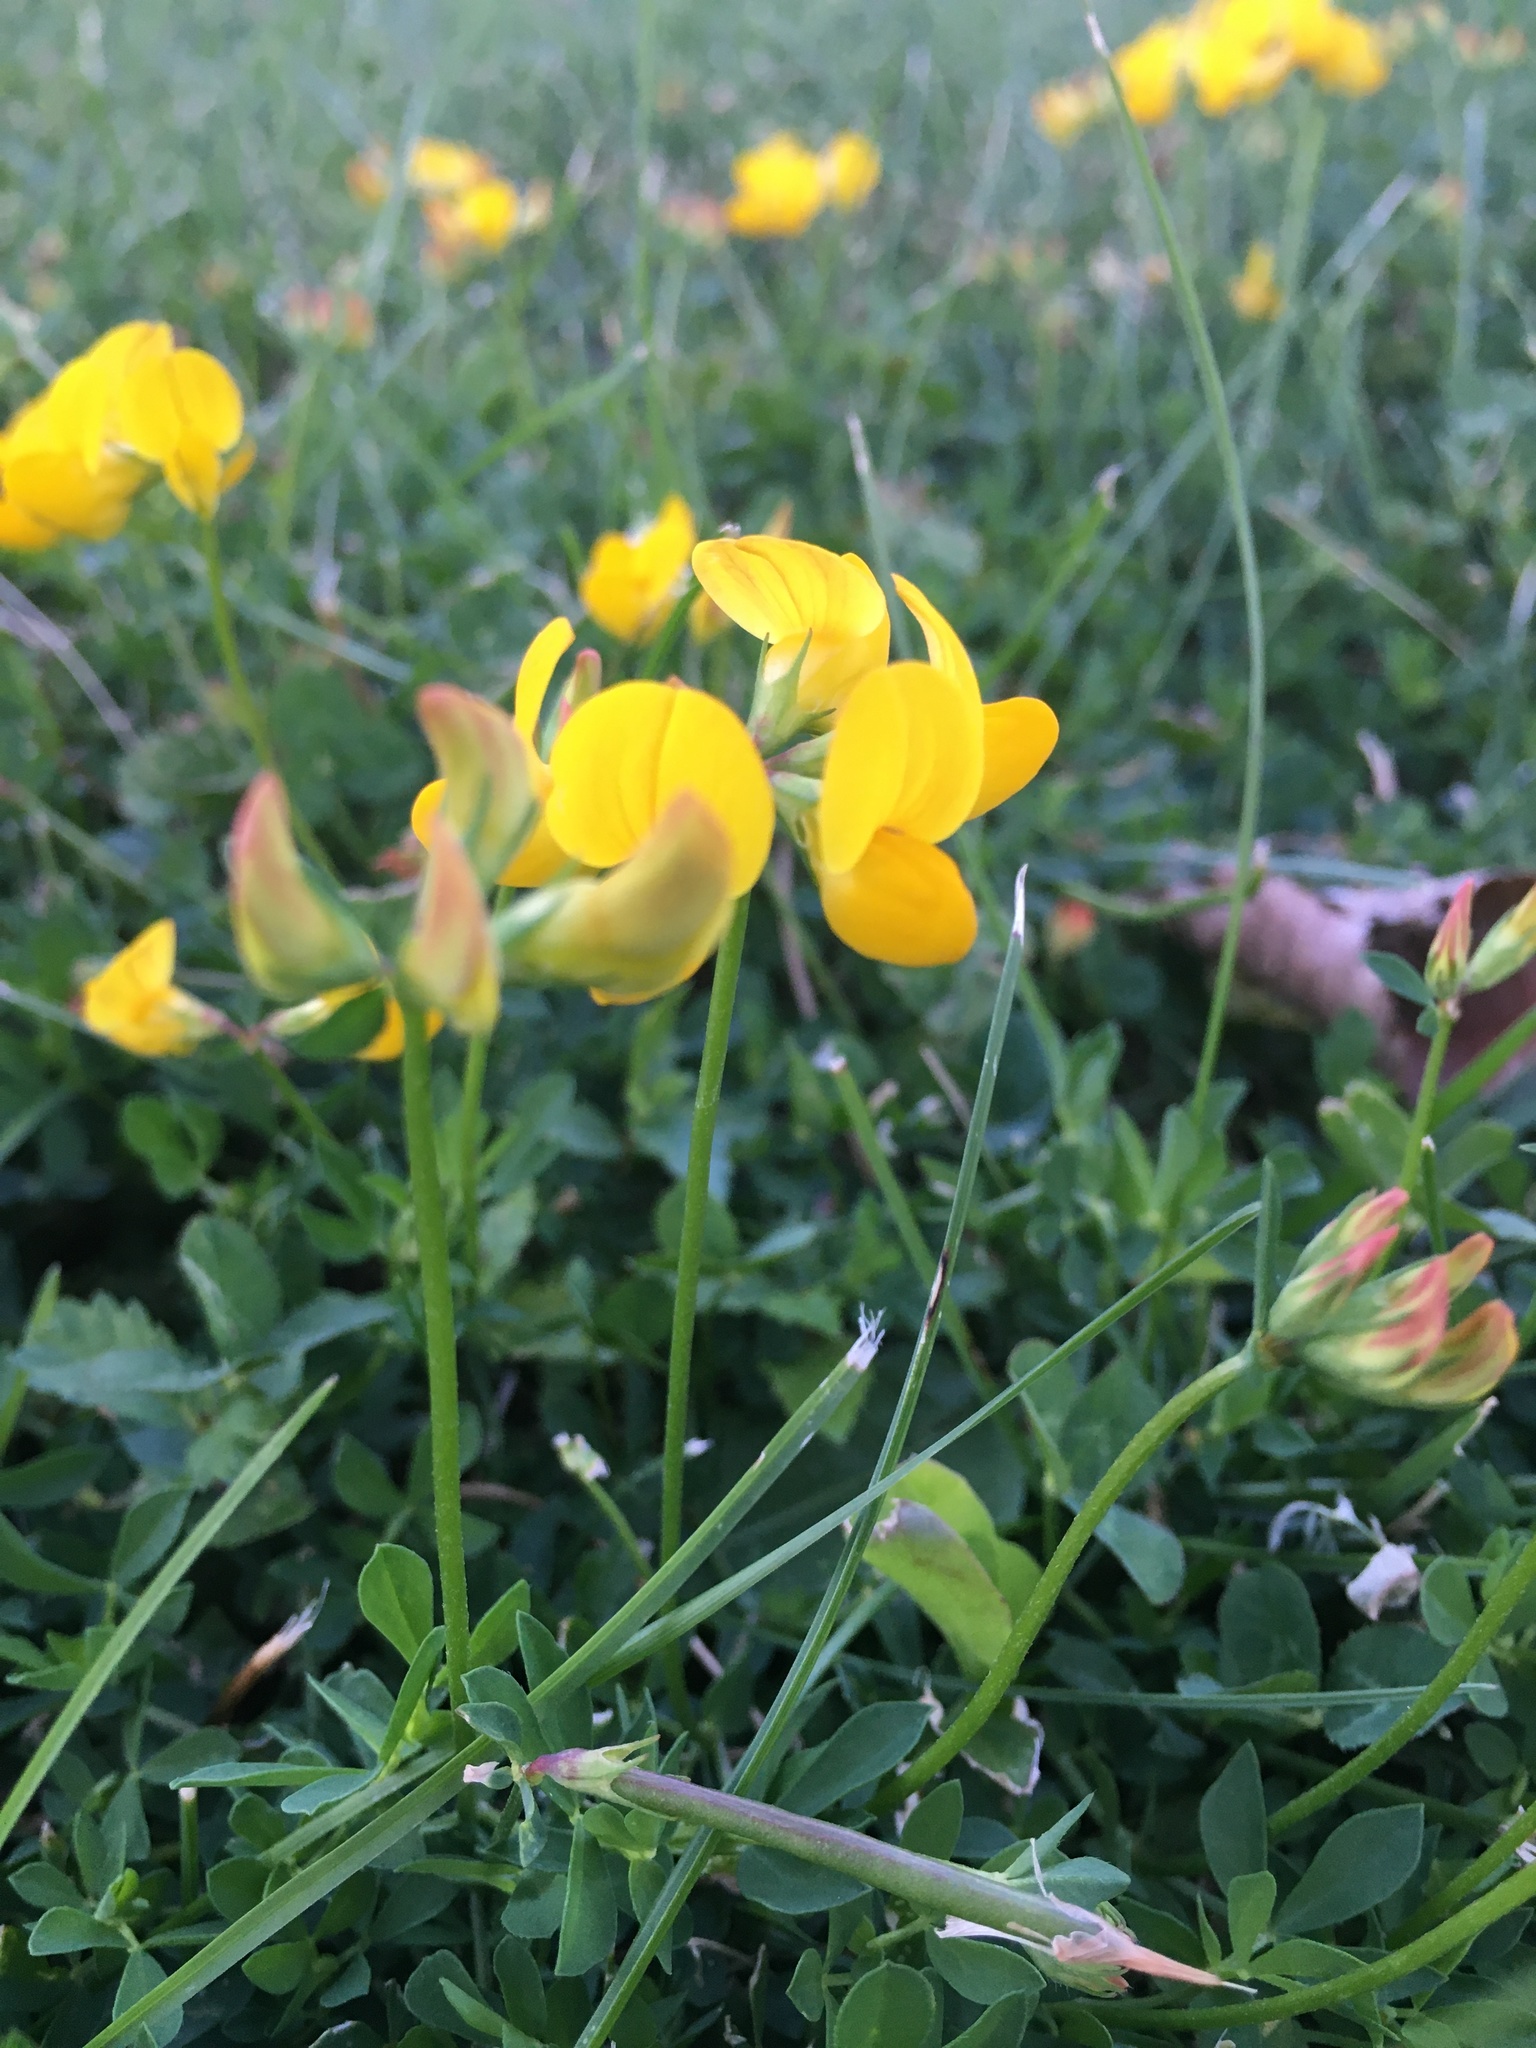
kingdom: Plantae
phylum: Tracheophyta
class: Magnoliopsida
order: Fabales
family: Fabaceae
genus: Lotus
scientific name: Lotus corniculatus
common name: Common bird's-foot-trefoil
